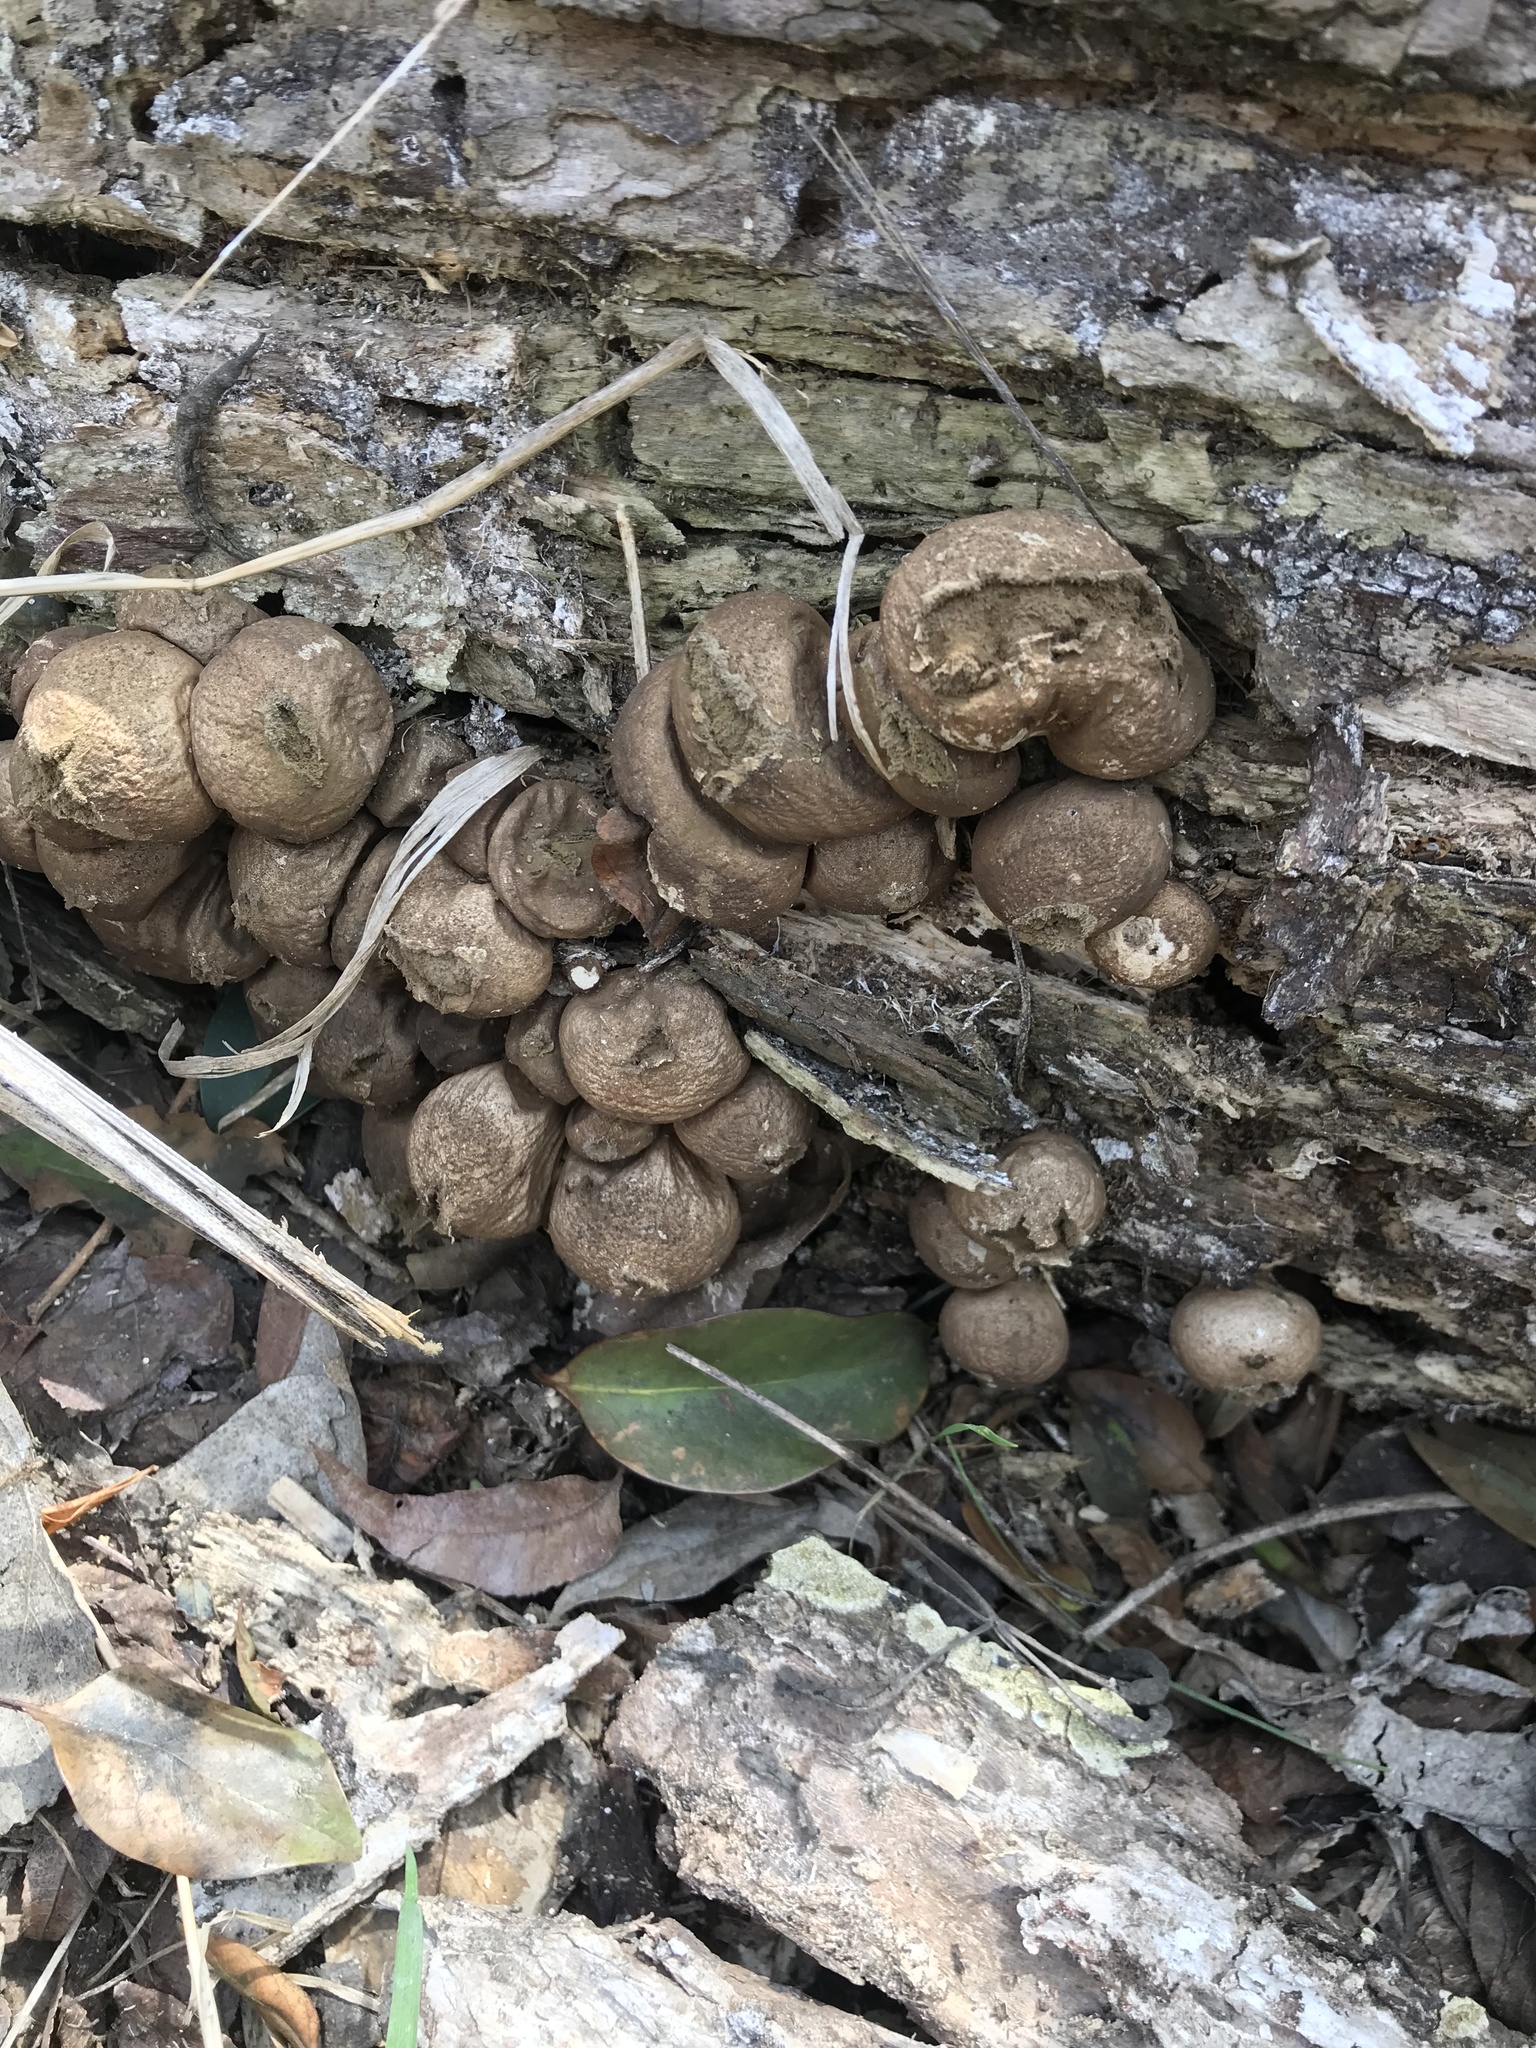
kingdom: Fungi
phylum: Basidiomycota
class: Agaricomycetes
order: Agaricales
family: Lycoperdaceae
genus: Apioperdon
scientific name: Apioperdon pyriforme
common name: Pear-shaped puffball
